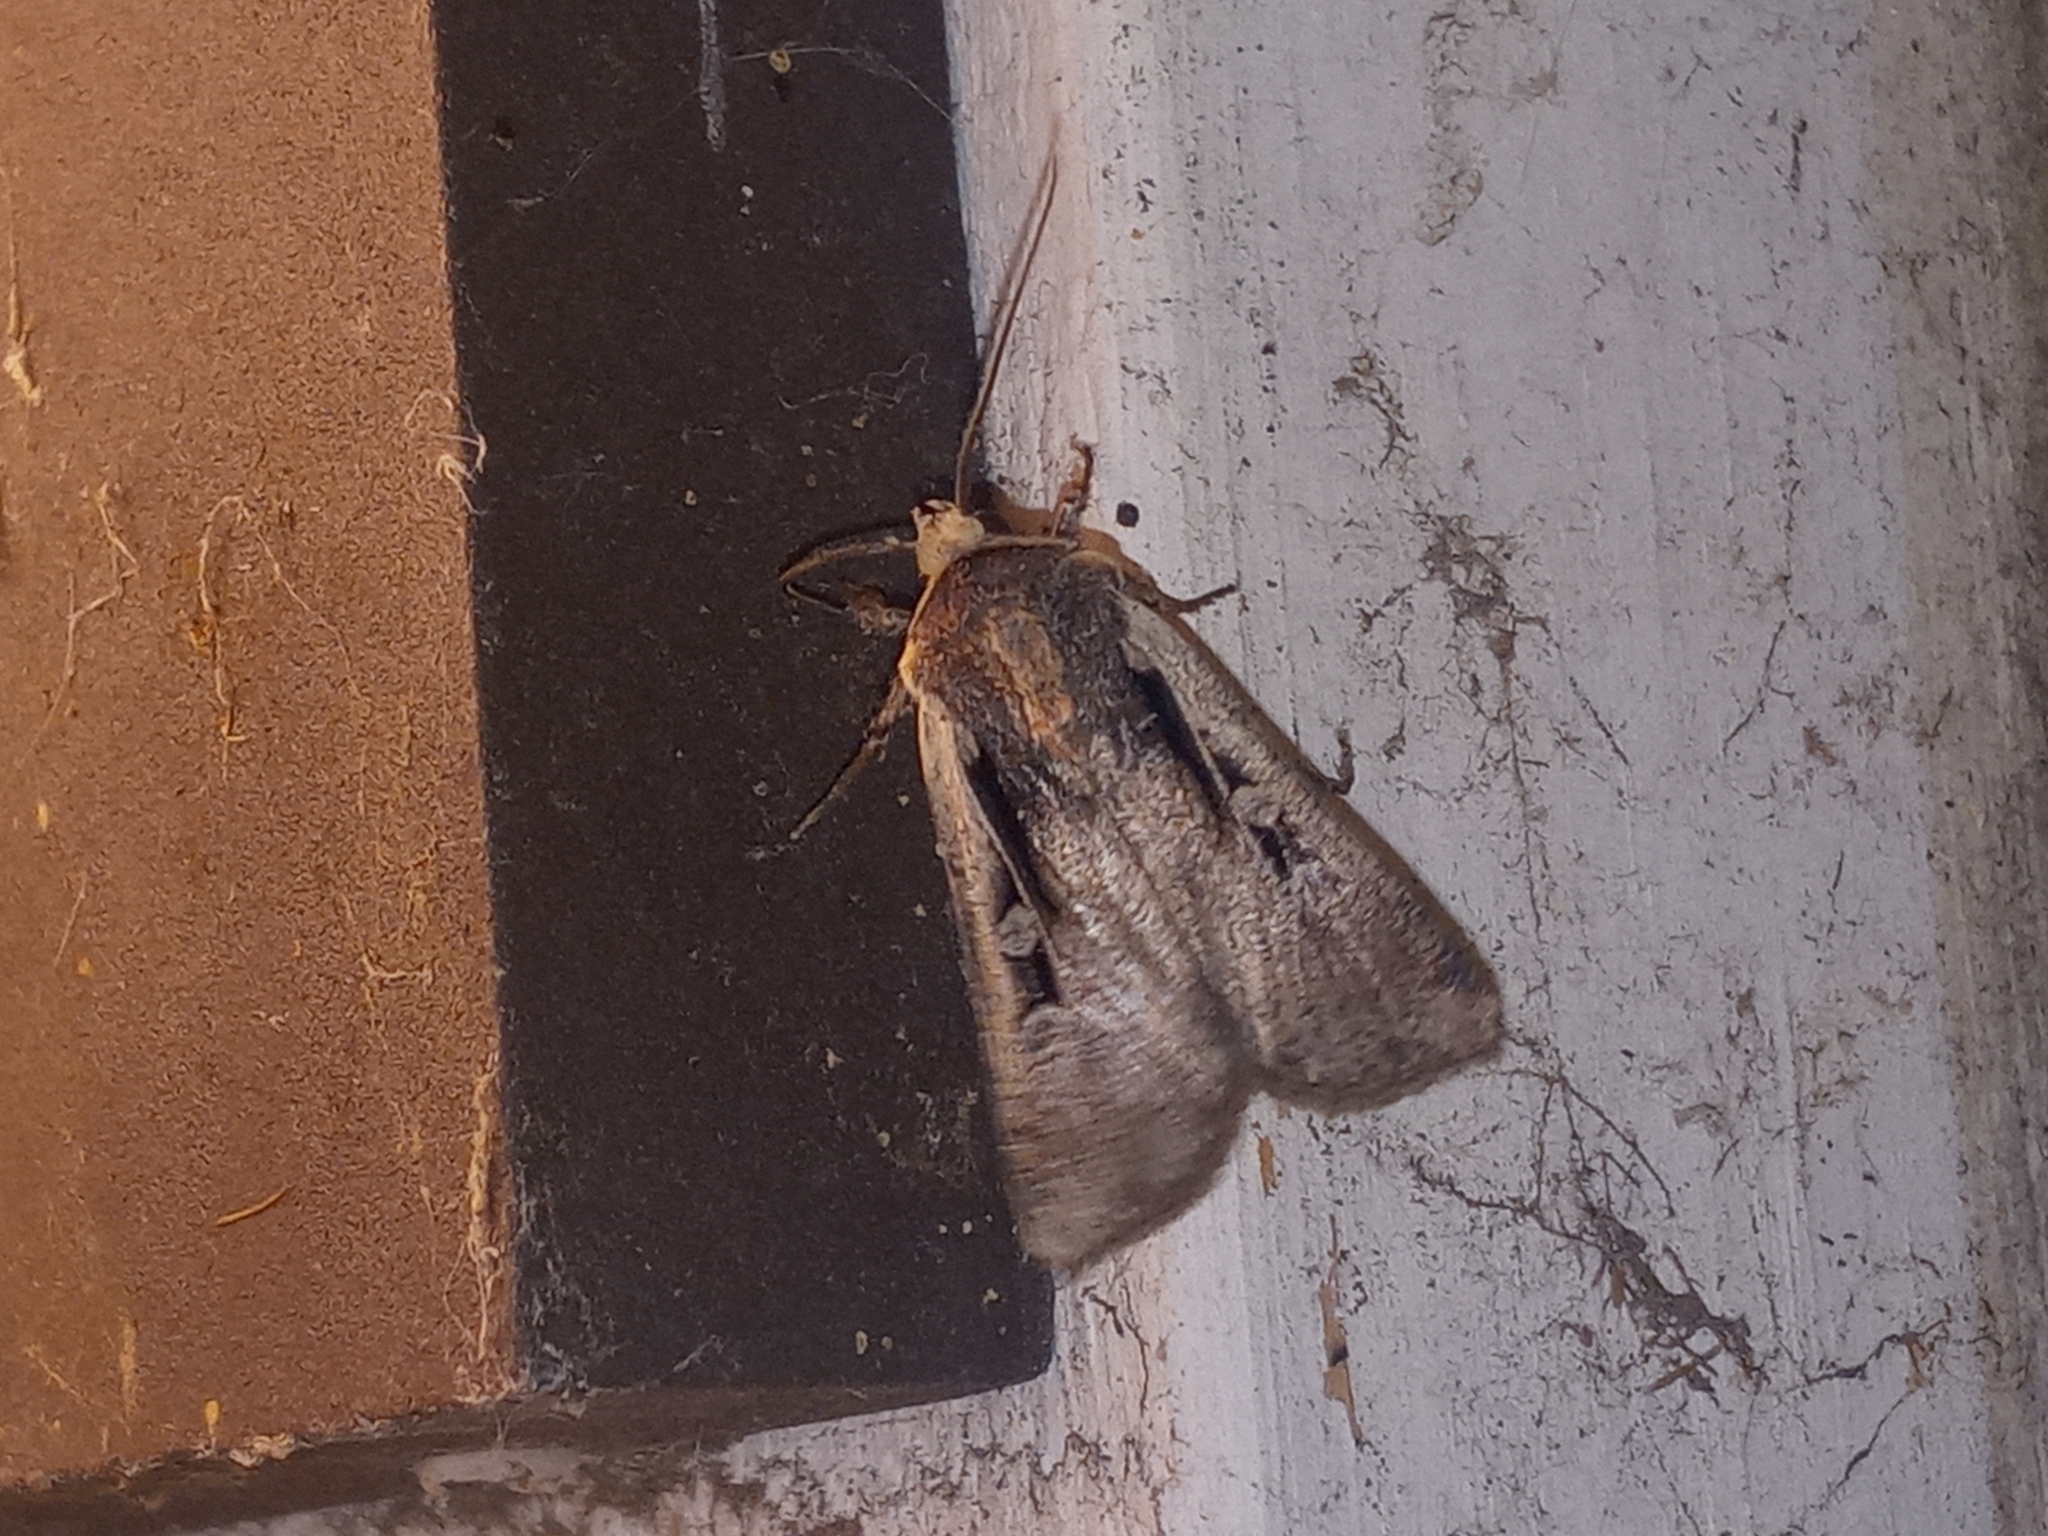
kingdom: Animalia
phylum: Arthropoda
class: Insecta
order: Lepidoptera
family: Noctuidae
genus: Hemieuxoa
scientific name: Hemieuxoa rudens
